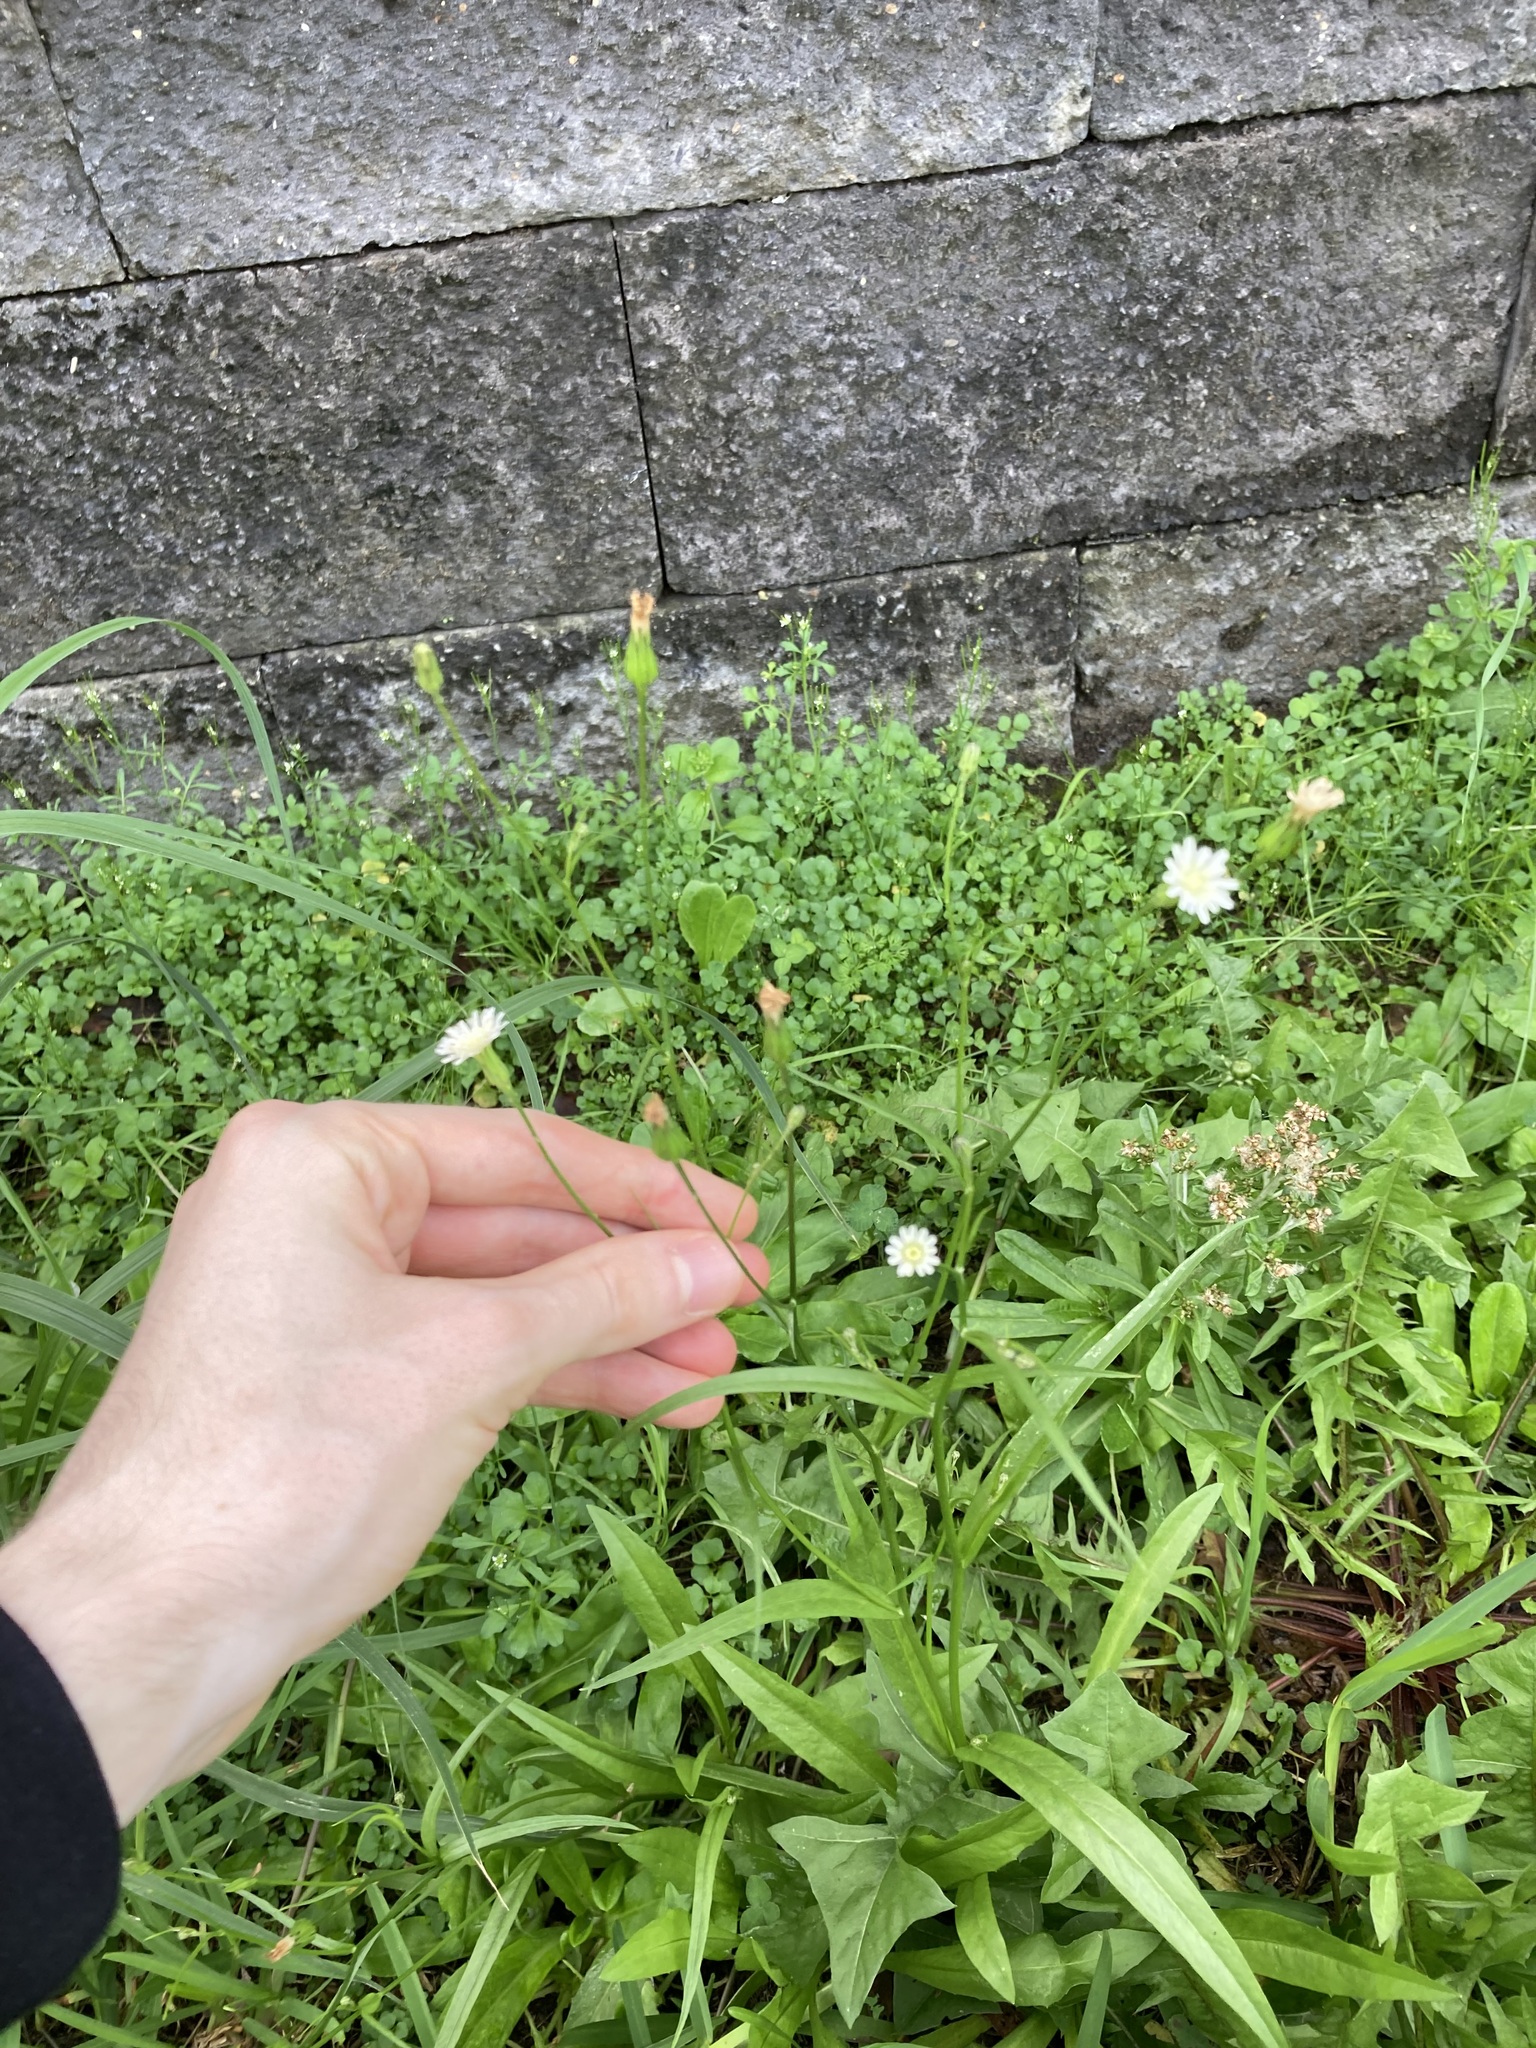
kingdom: Plantae
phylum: Tracheophyta
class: Magnoliopsida
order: Asterales
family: Asteraceae
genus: Hypochaeris
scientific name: Hypochaeris albiflora
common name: White flatweed
